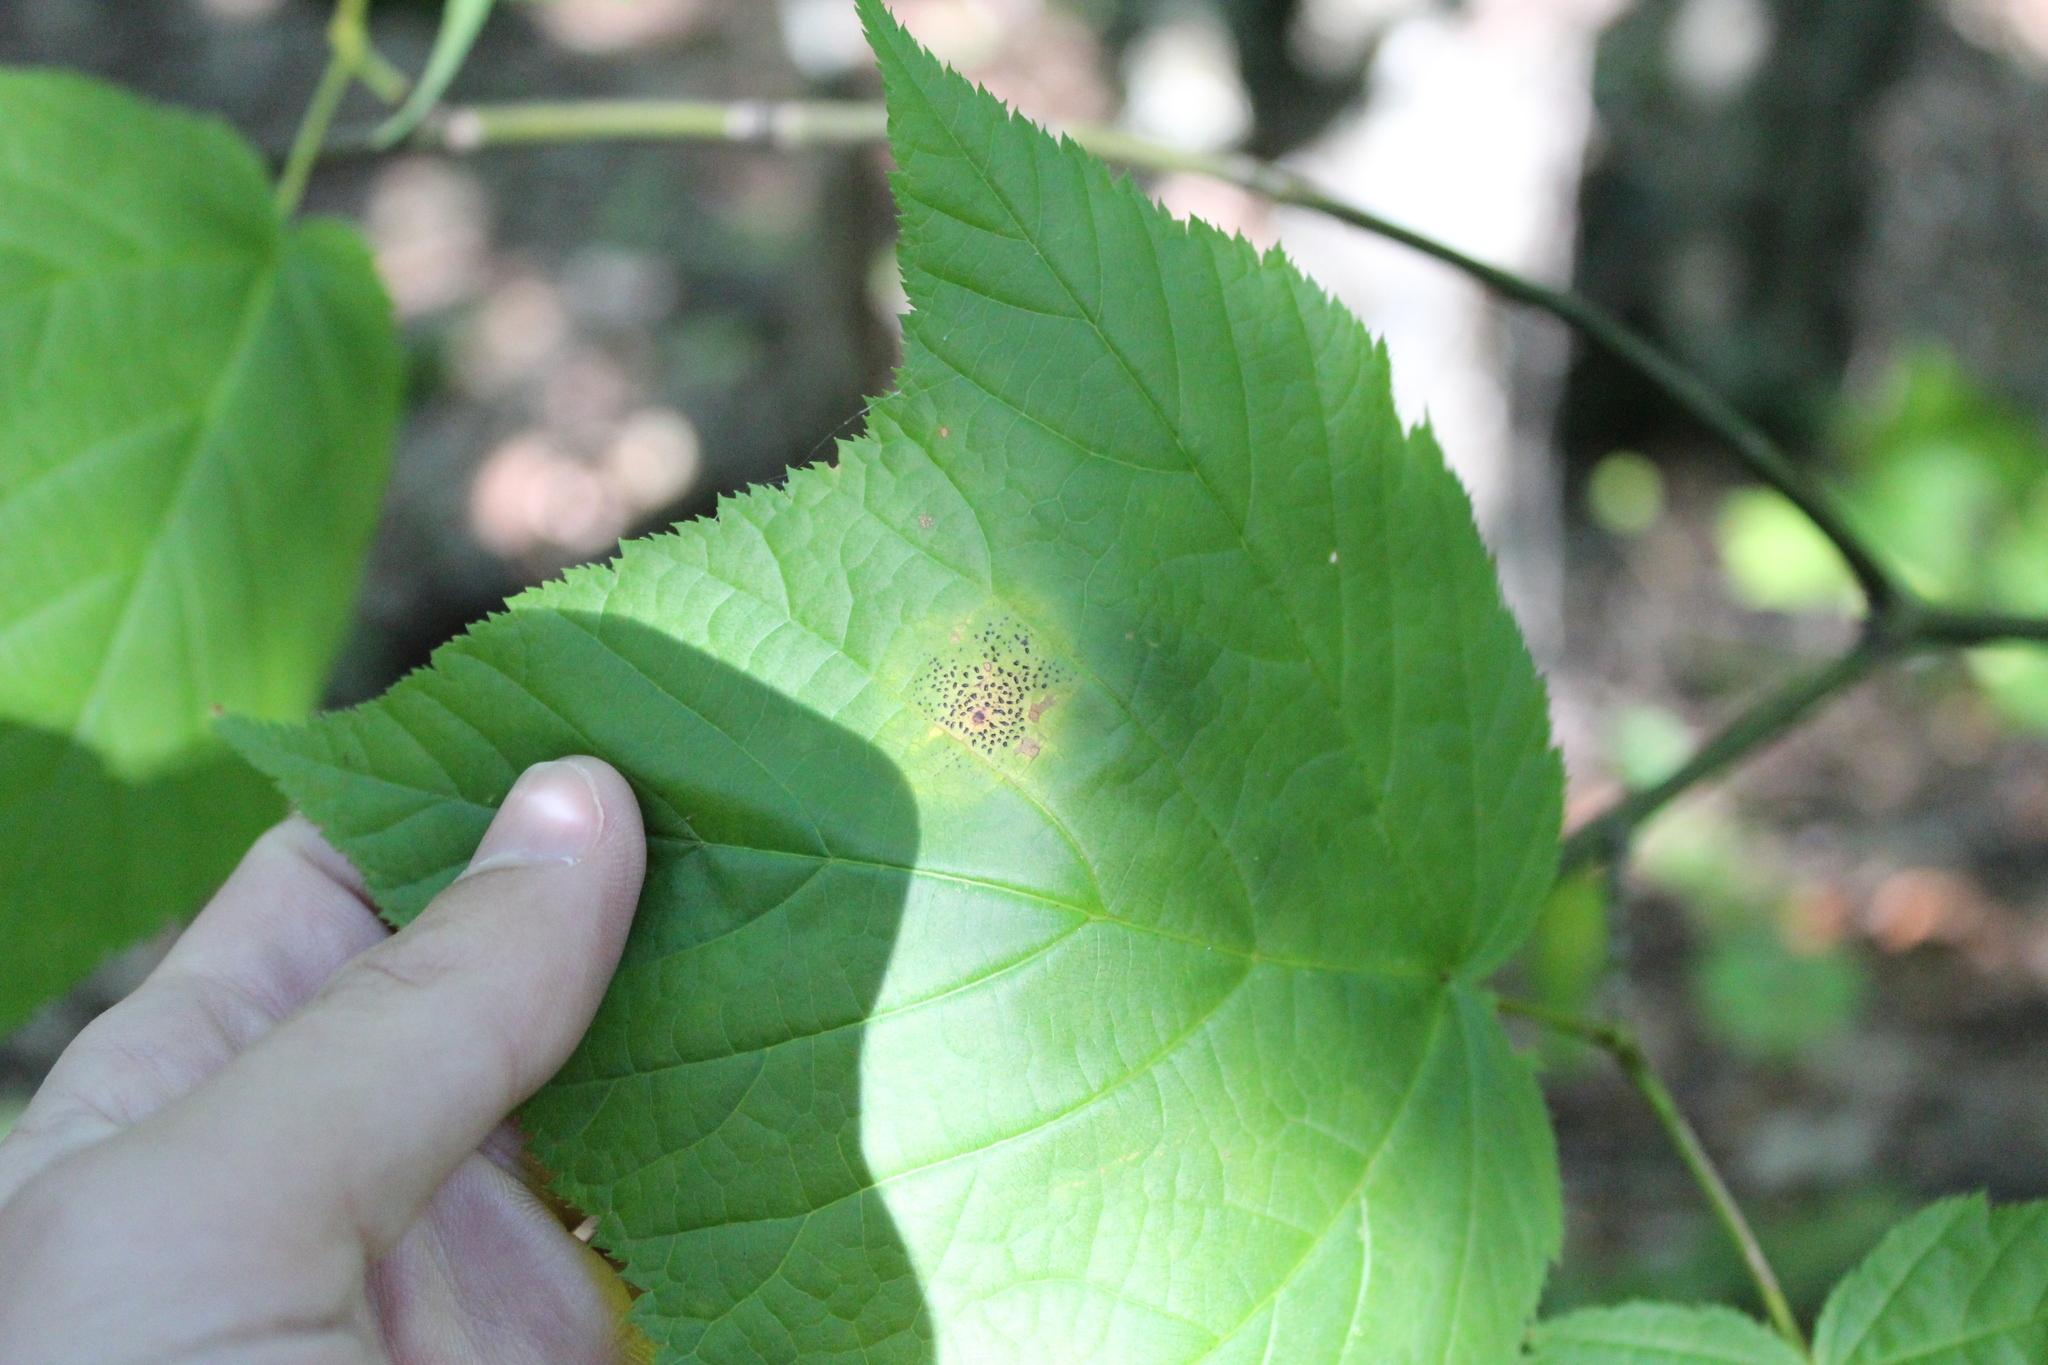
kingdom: Plantae
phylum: Tracheophyta
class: Magnoliopsida
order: Sapindales
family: Sapindaceae
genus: Acer
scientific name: Acer pensylvanicum
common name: Moosewood
